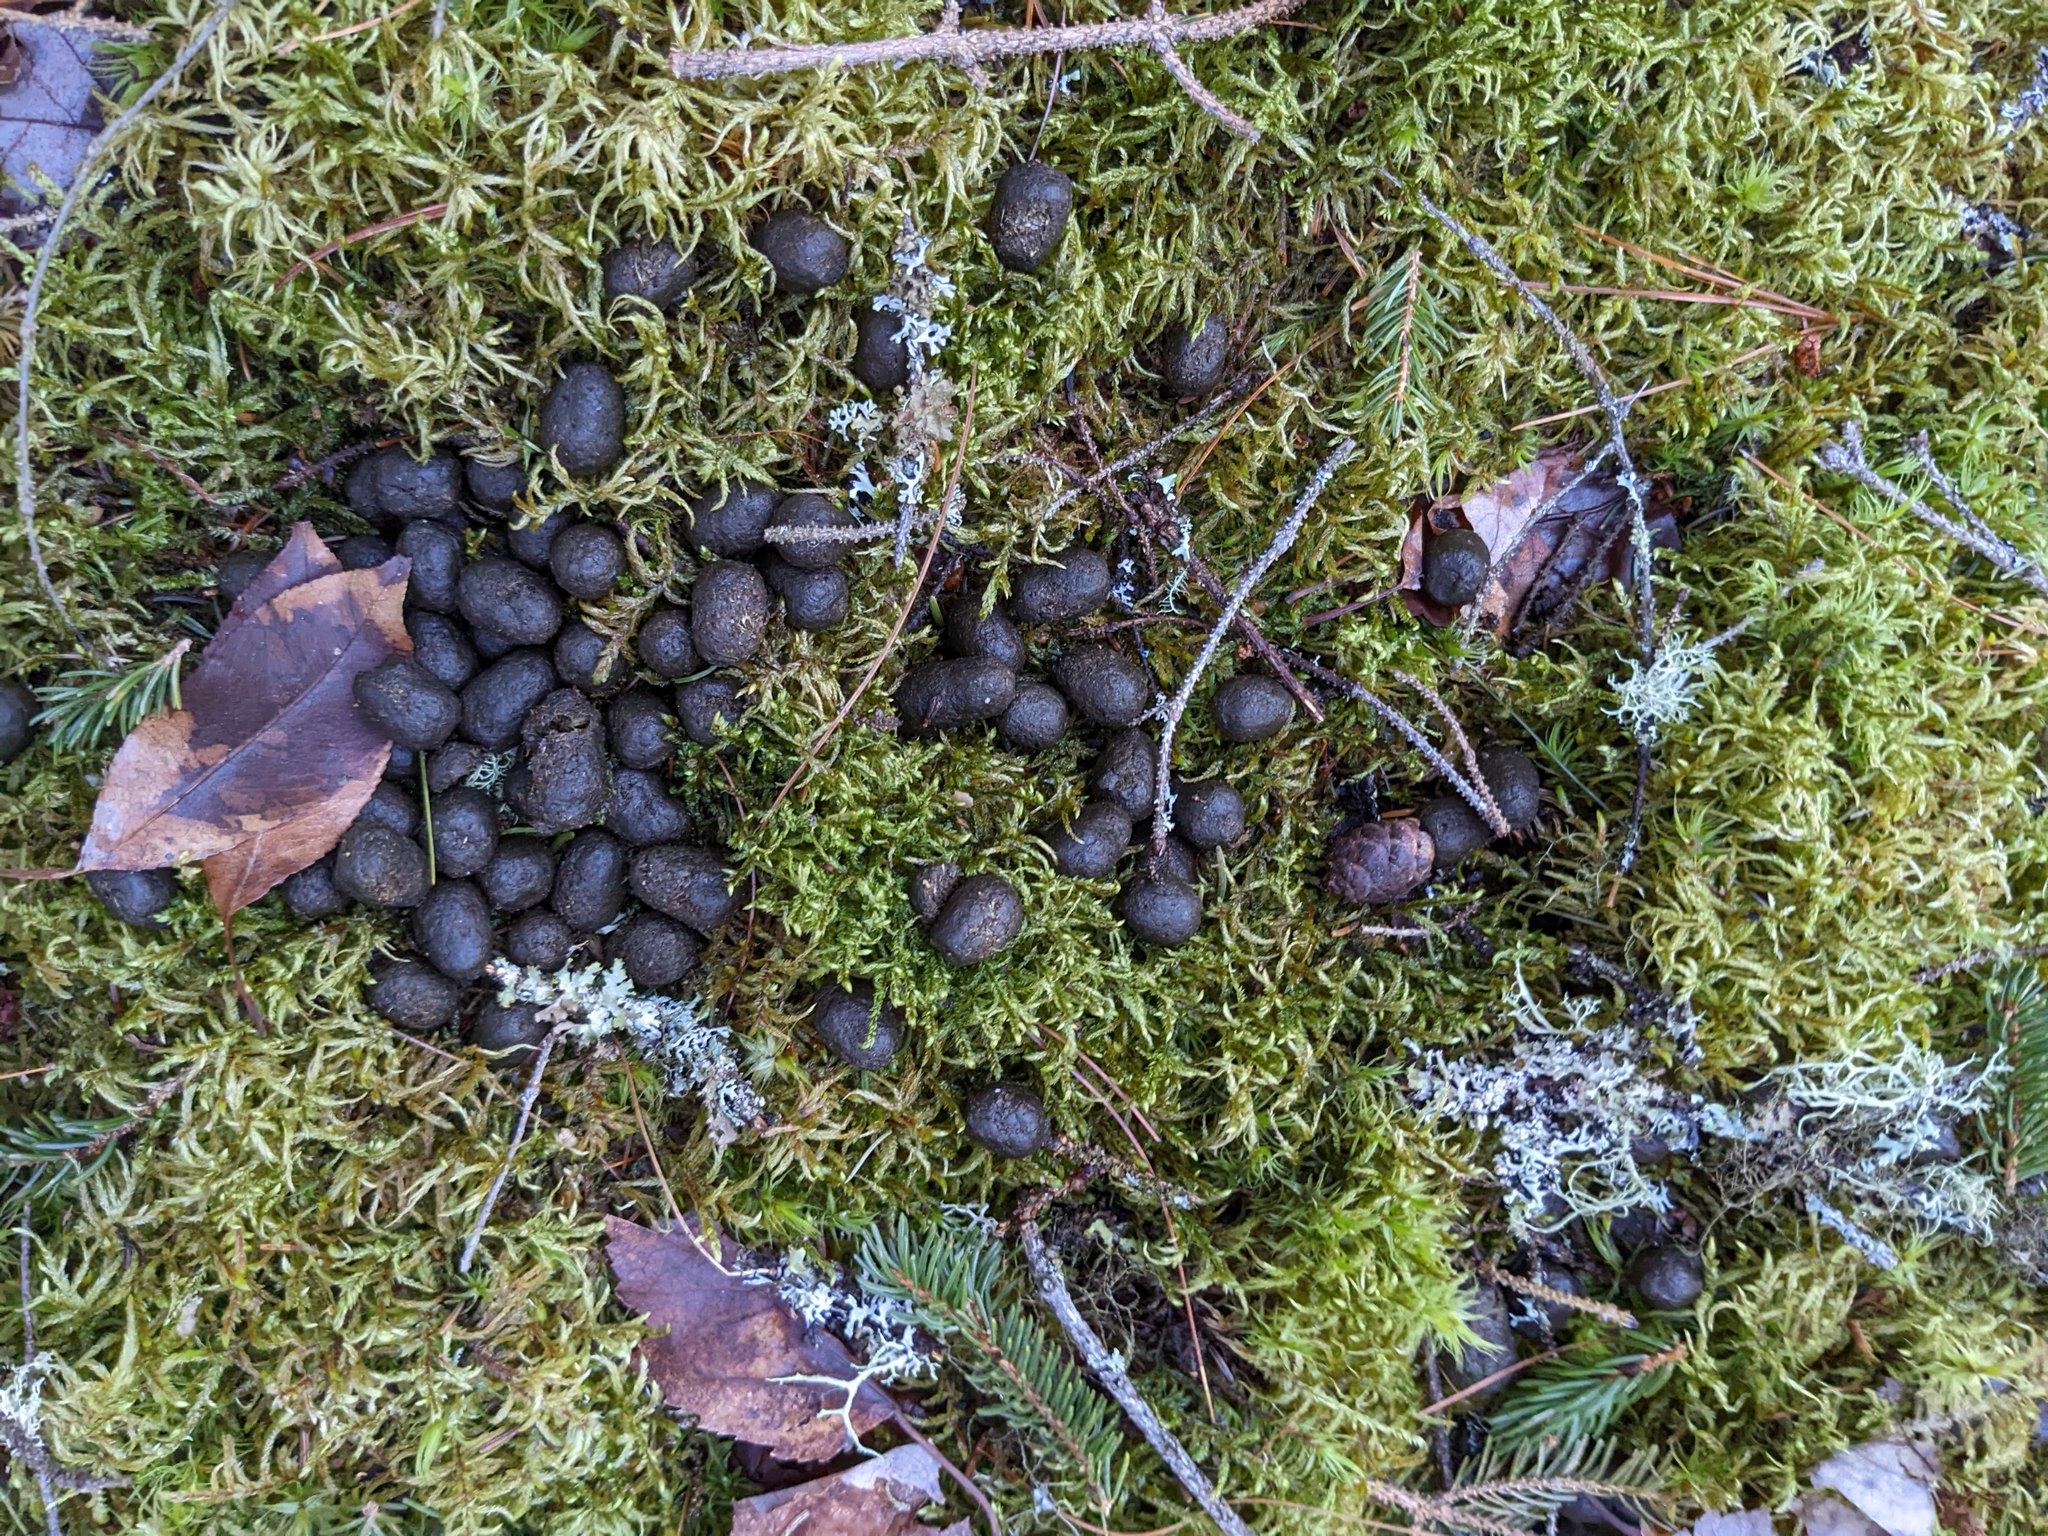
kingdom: Animalia
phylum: Chordata
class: Mammalia
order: Artiodactyla
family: Cervidae
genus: Odocoileus
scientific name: Odocoileus virginianus
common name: White-tailed deer
